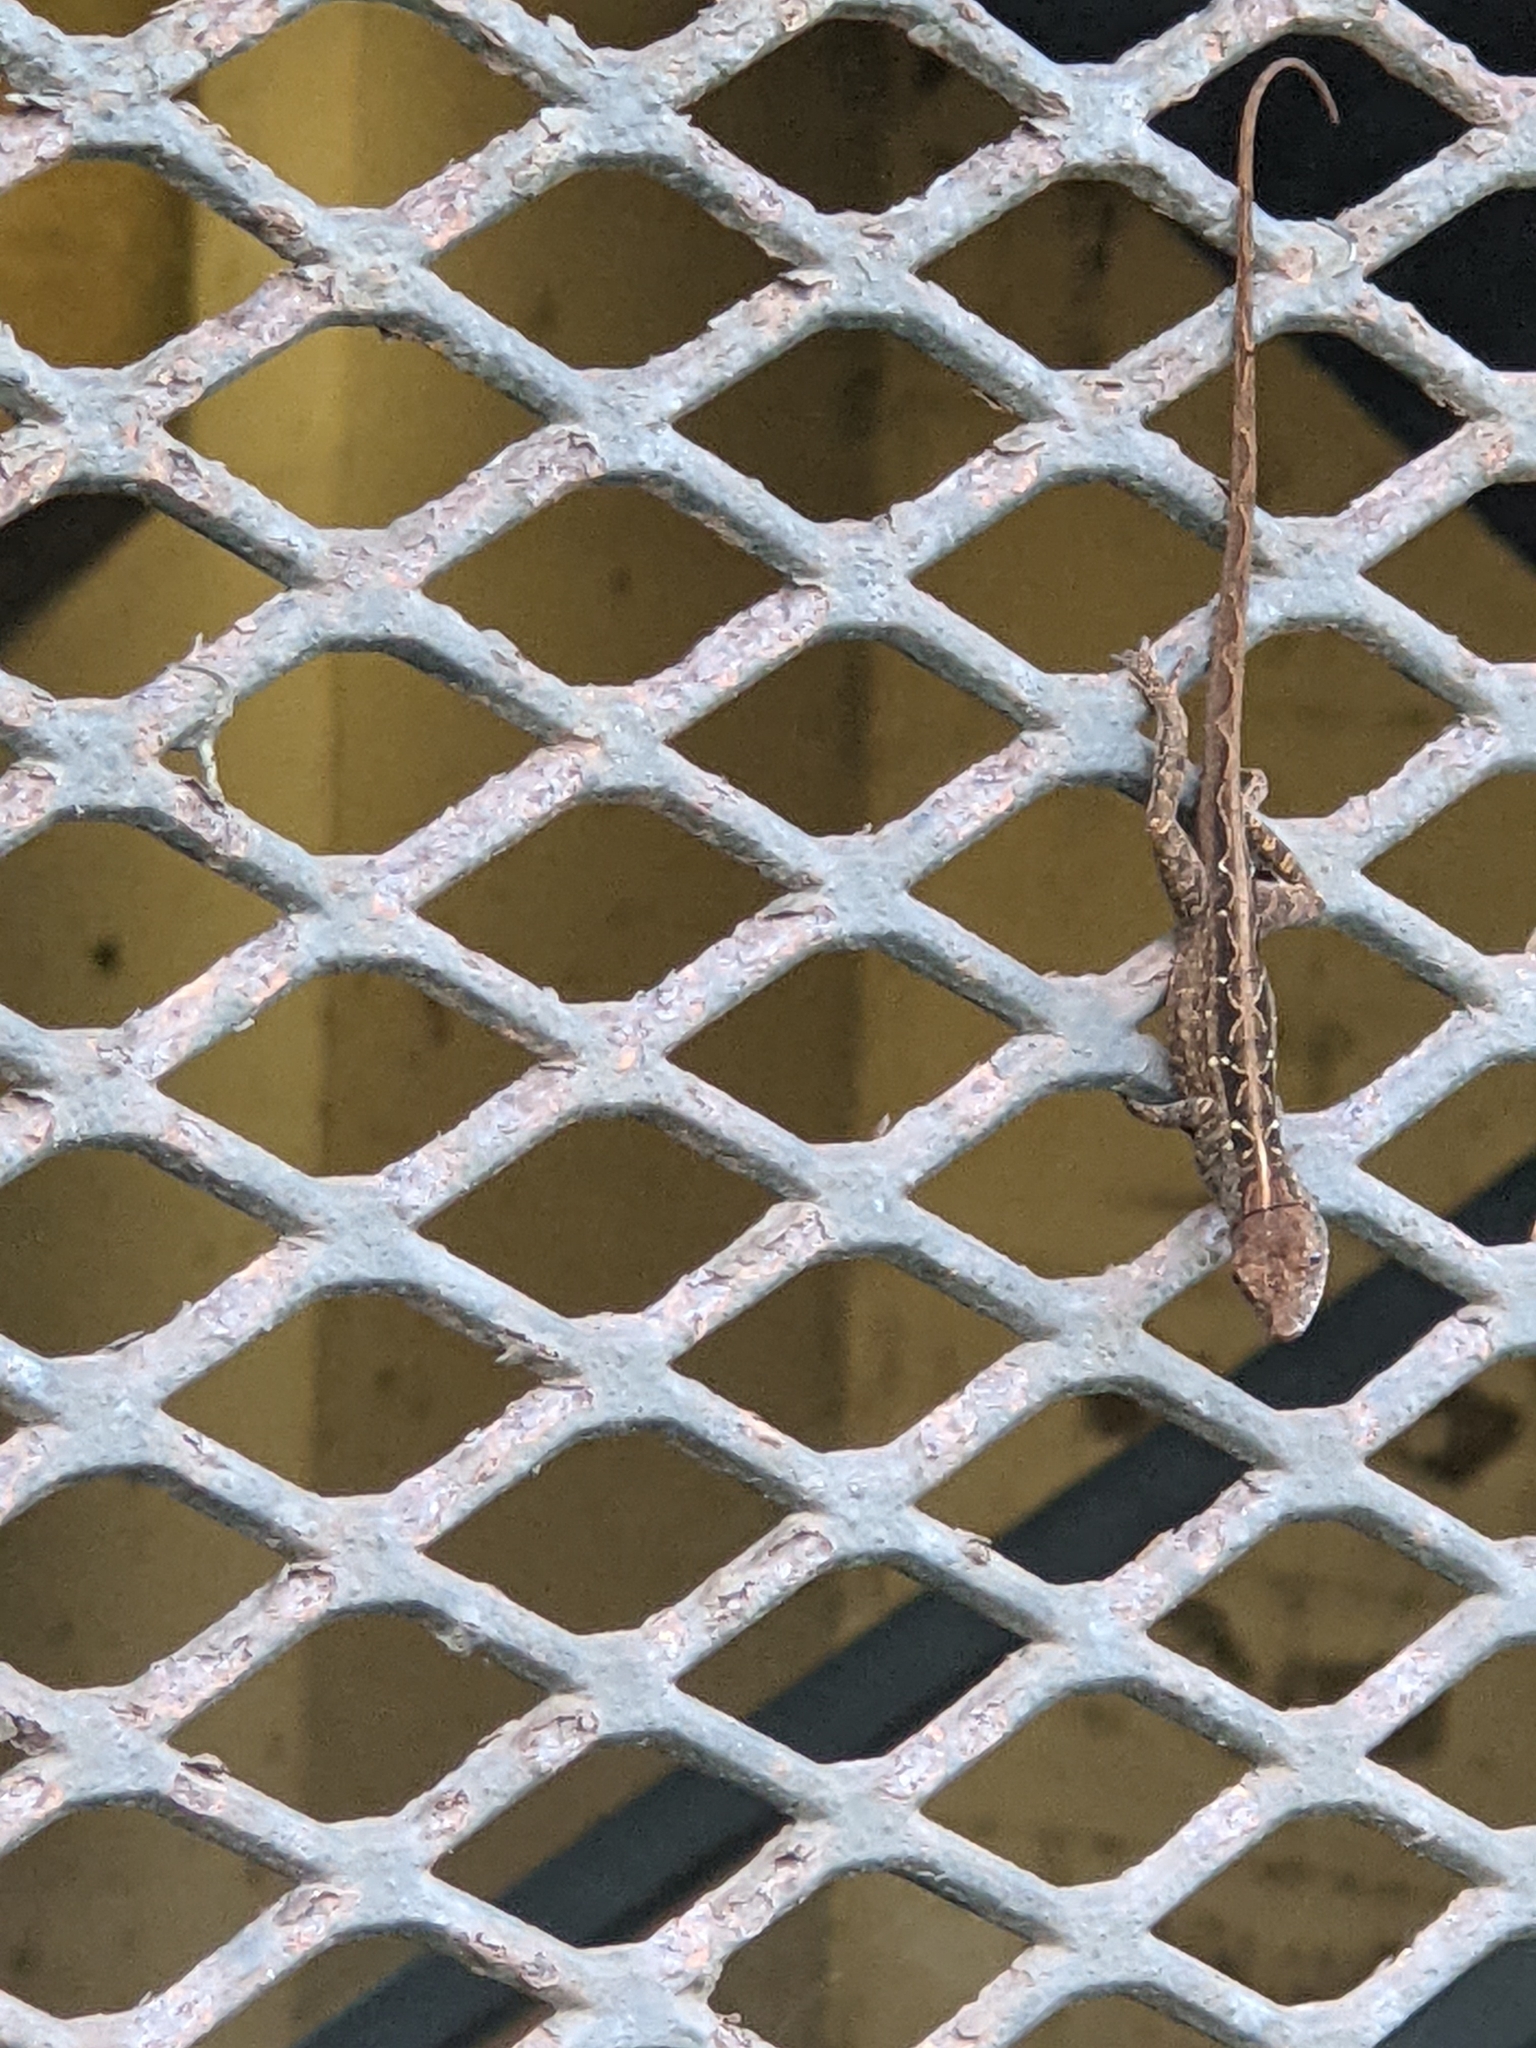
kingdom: Animalia
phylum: Chordata
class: Squamata
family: Dactyloidae
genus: Anolis
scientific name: Anolis sagrei
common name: Brown anole
